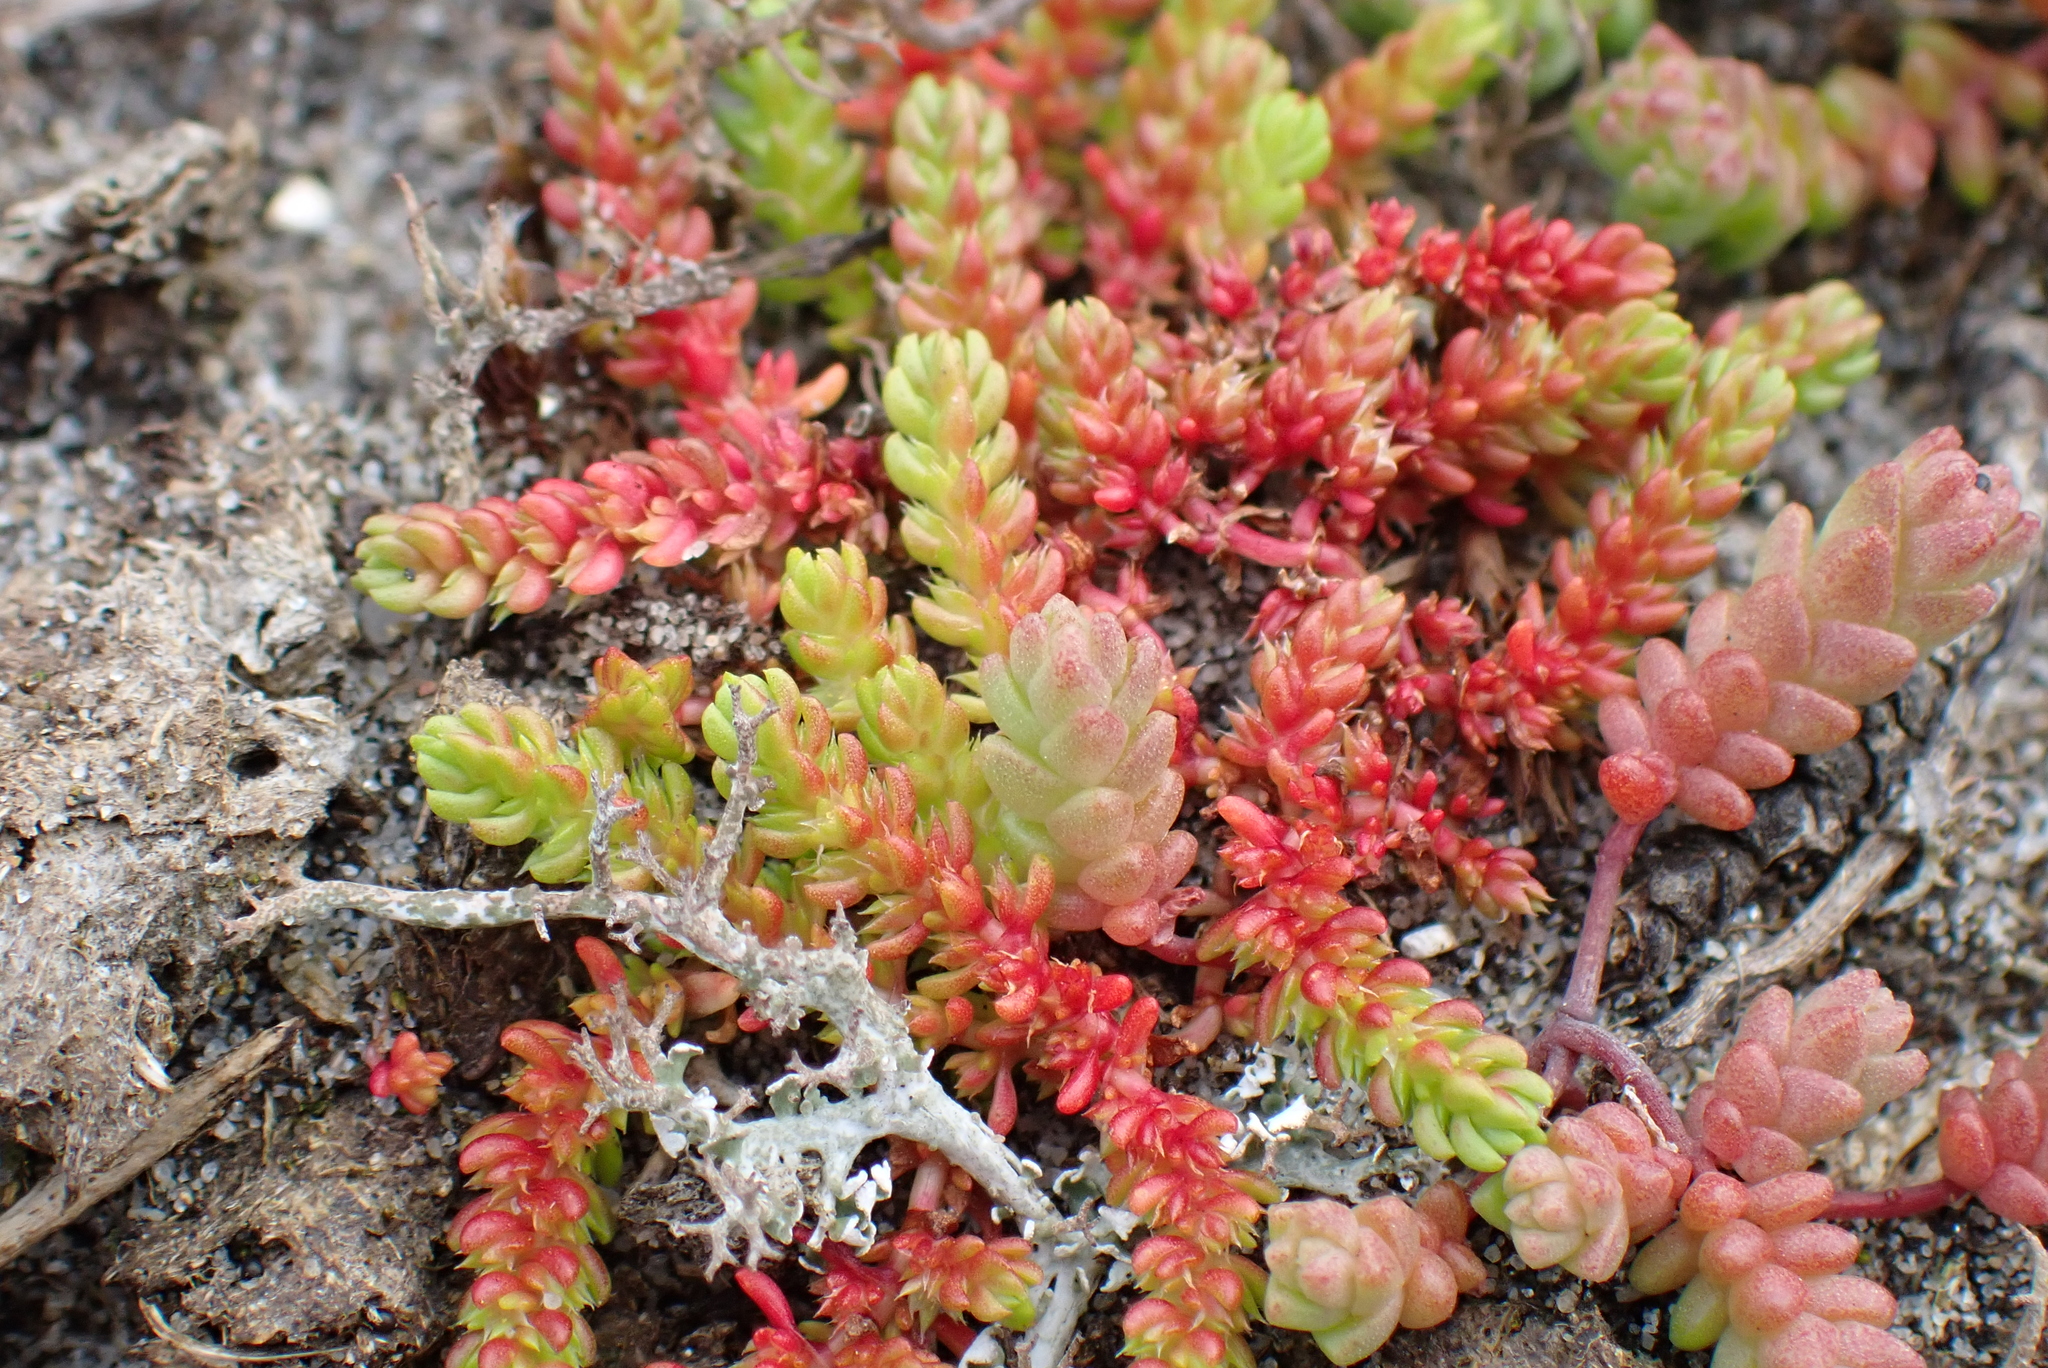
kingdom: Plantae
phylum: Tracheophyta
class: Magnoliopsida
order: Saxifragales
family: Crassulaceae
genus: Crassula
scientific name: Crassula tillaea
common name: Mossy stonecrop
